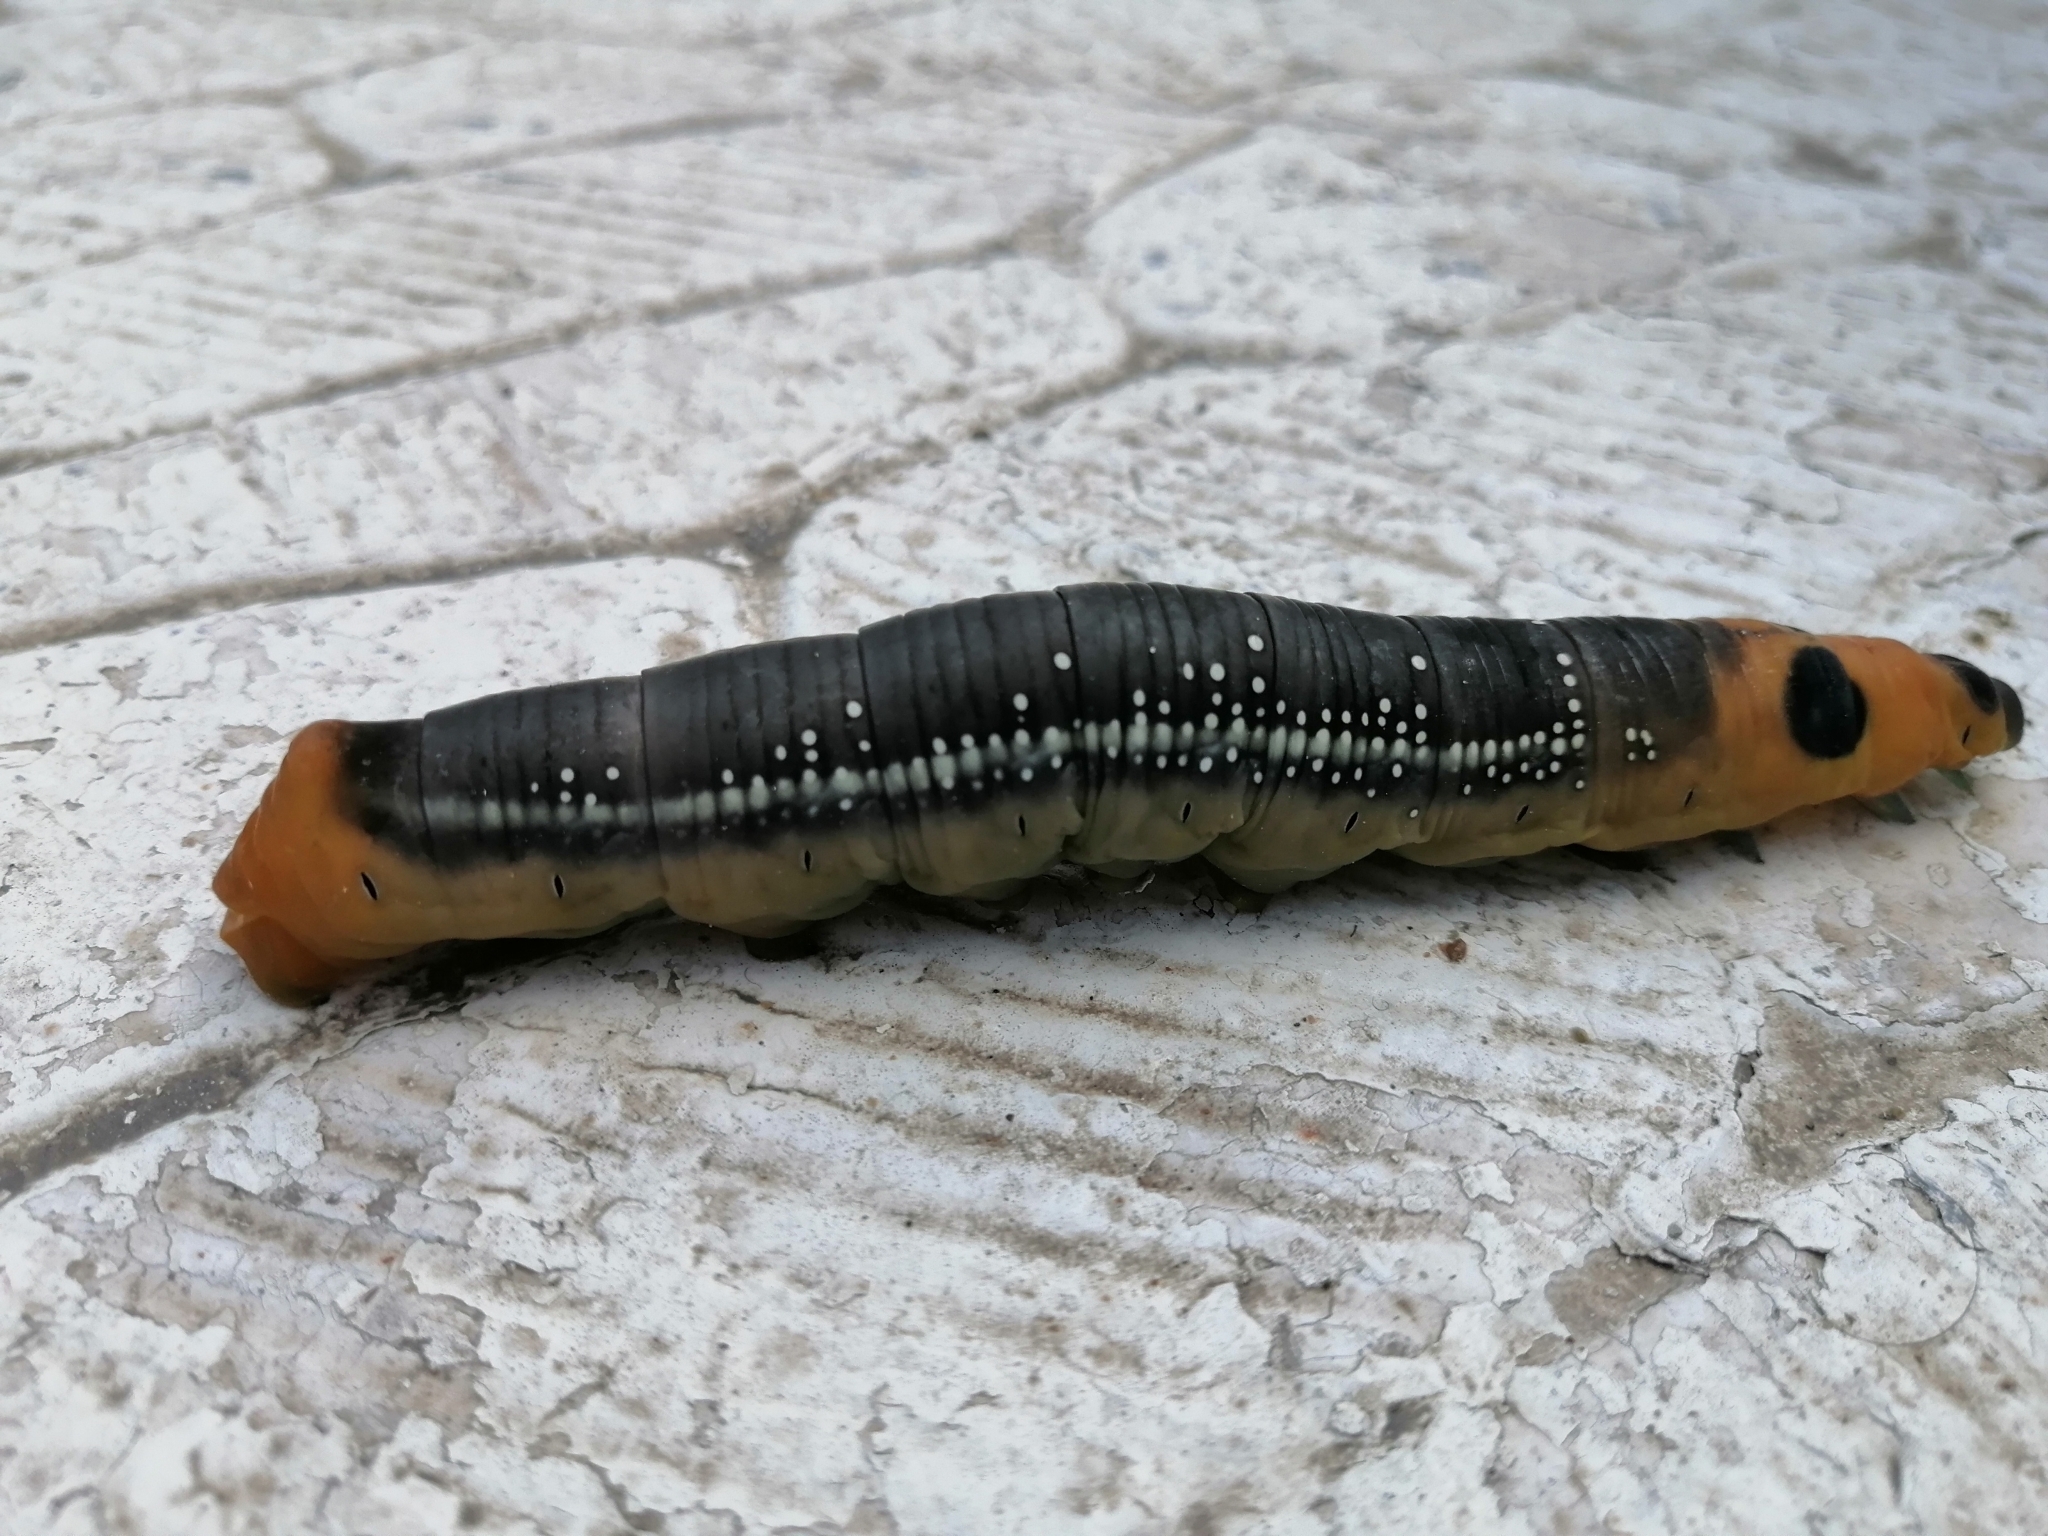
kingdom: Animalia
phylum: Arthropoda
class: Insecta
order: Lepidoptera
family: Sphingidae
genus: Daphnis
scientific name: Daphnis nerii
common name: Oleander hawk-moth
